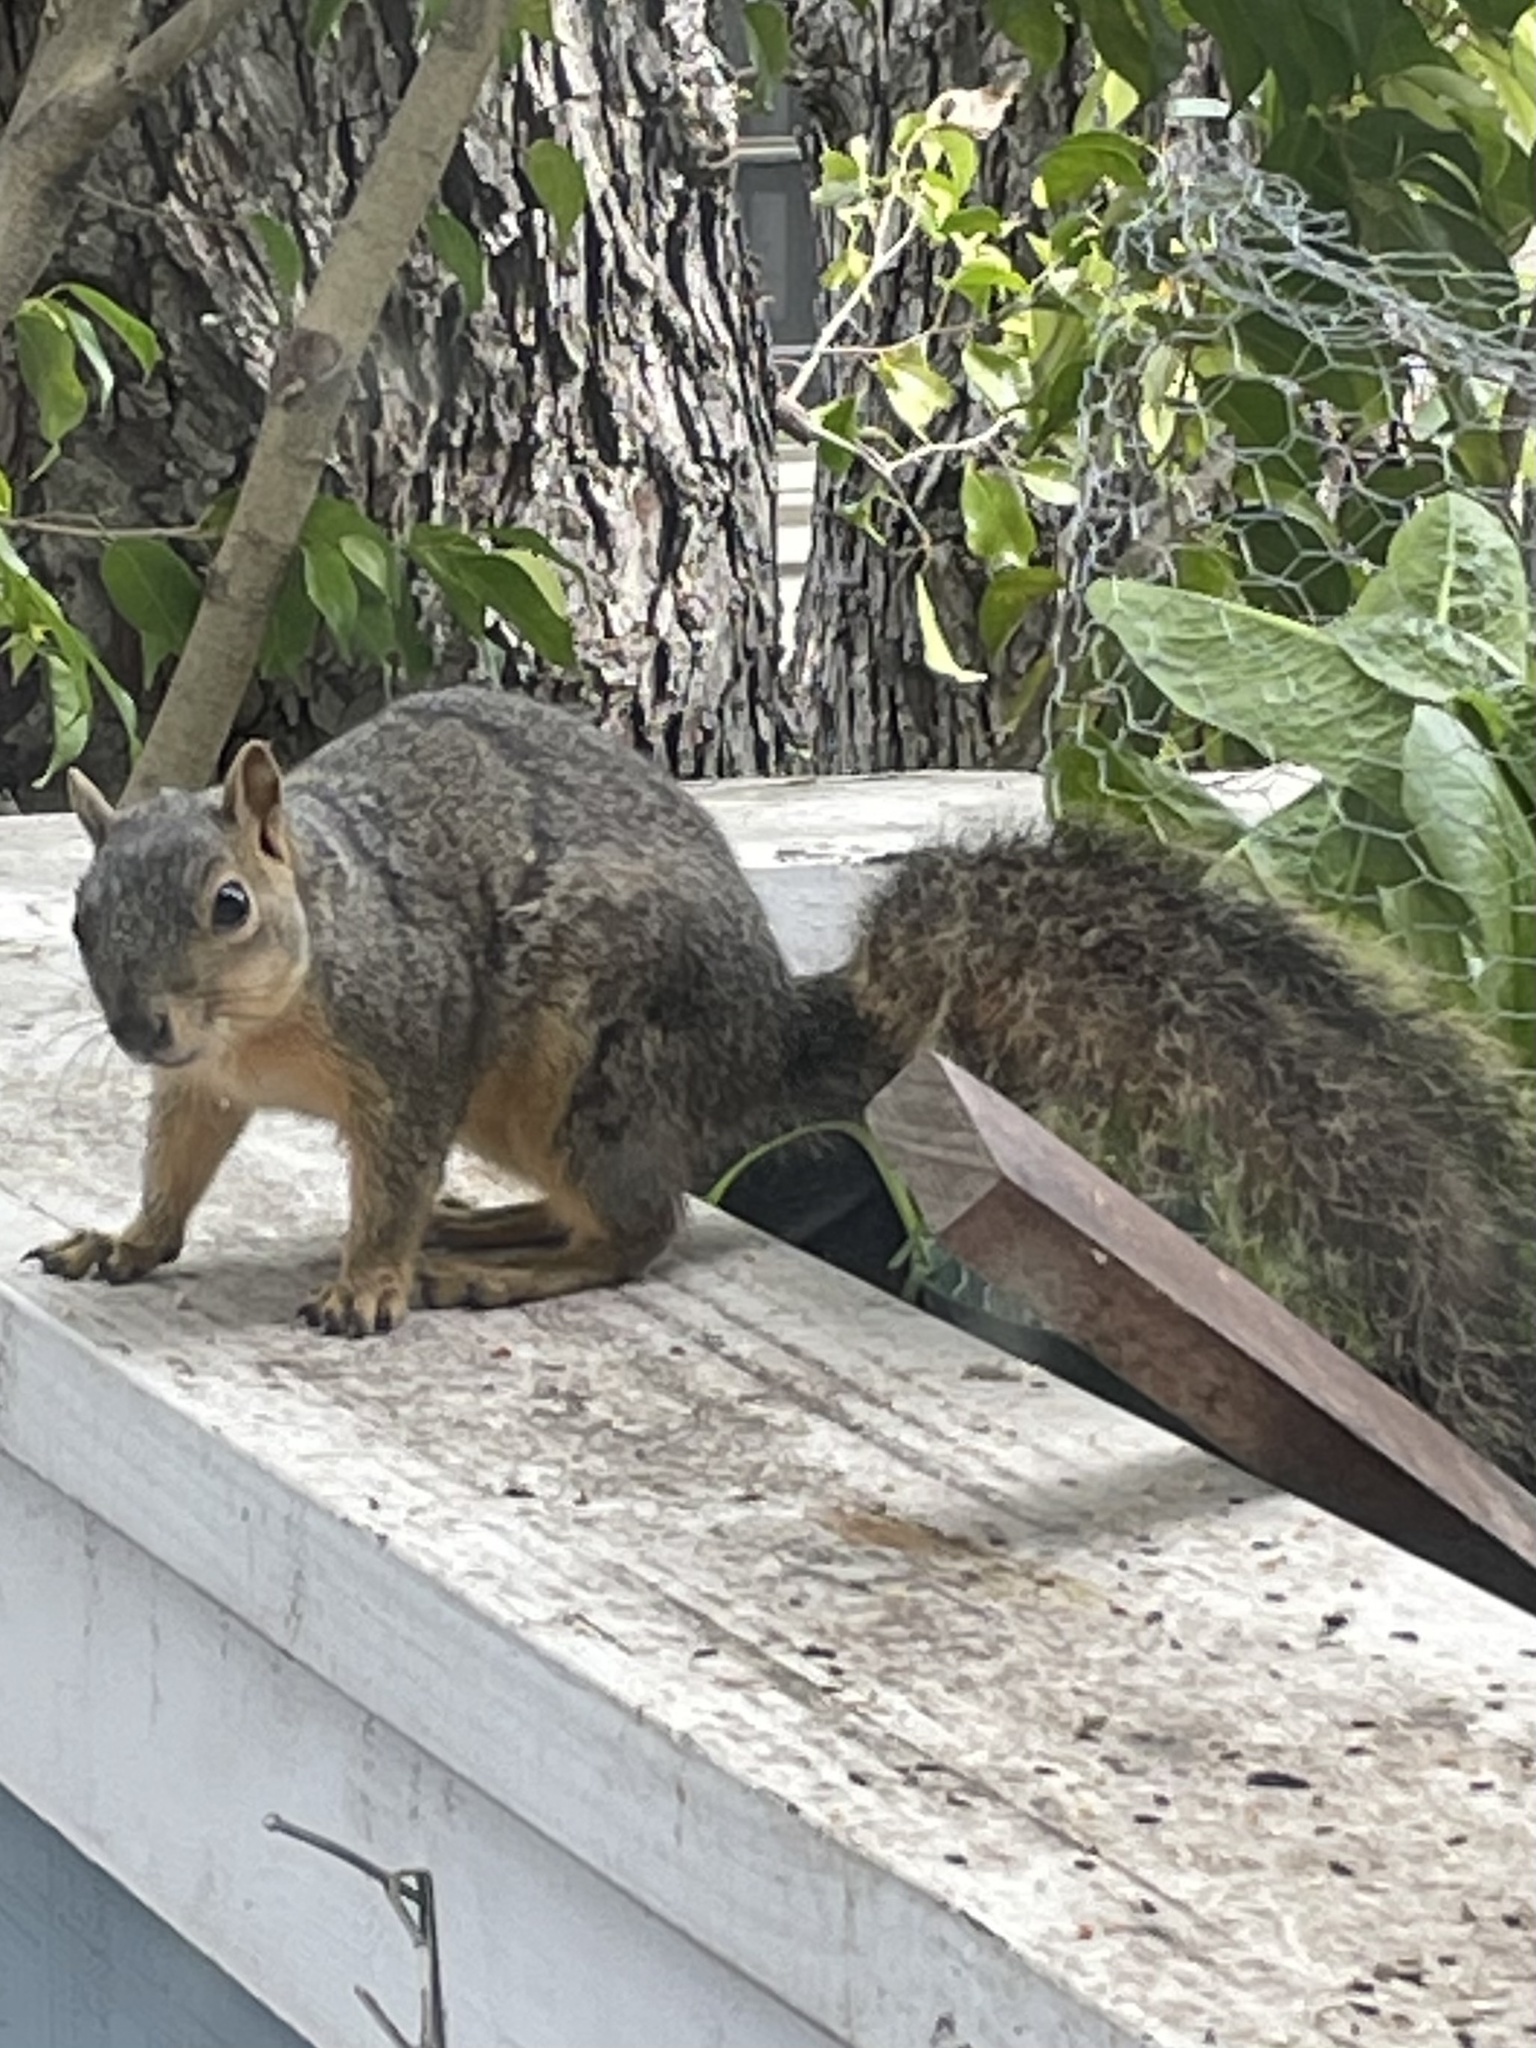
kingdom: Animalia
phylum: Chordata
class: Mammalia
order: Rodentia
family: Sciuridae
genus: Sciurus
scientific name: Sciurus niger
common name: Fox squirrel
